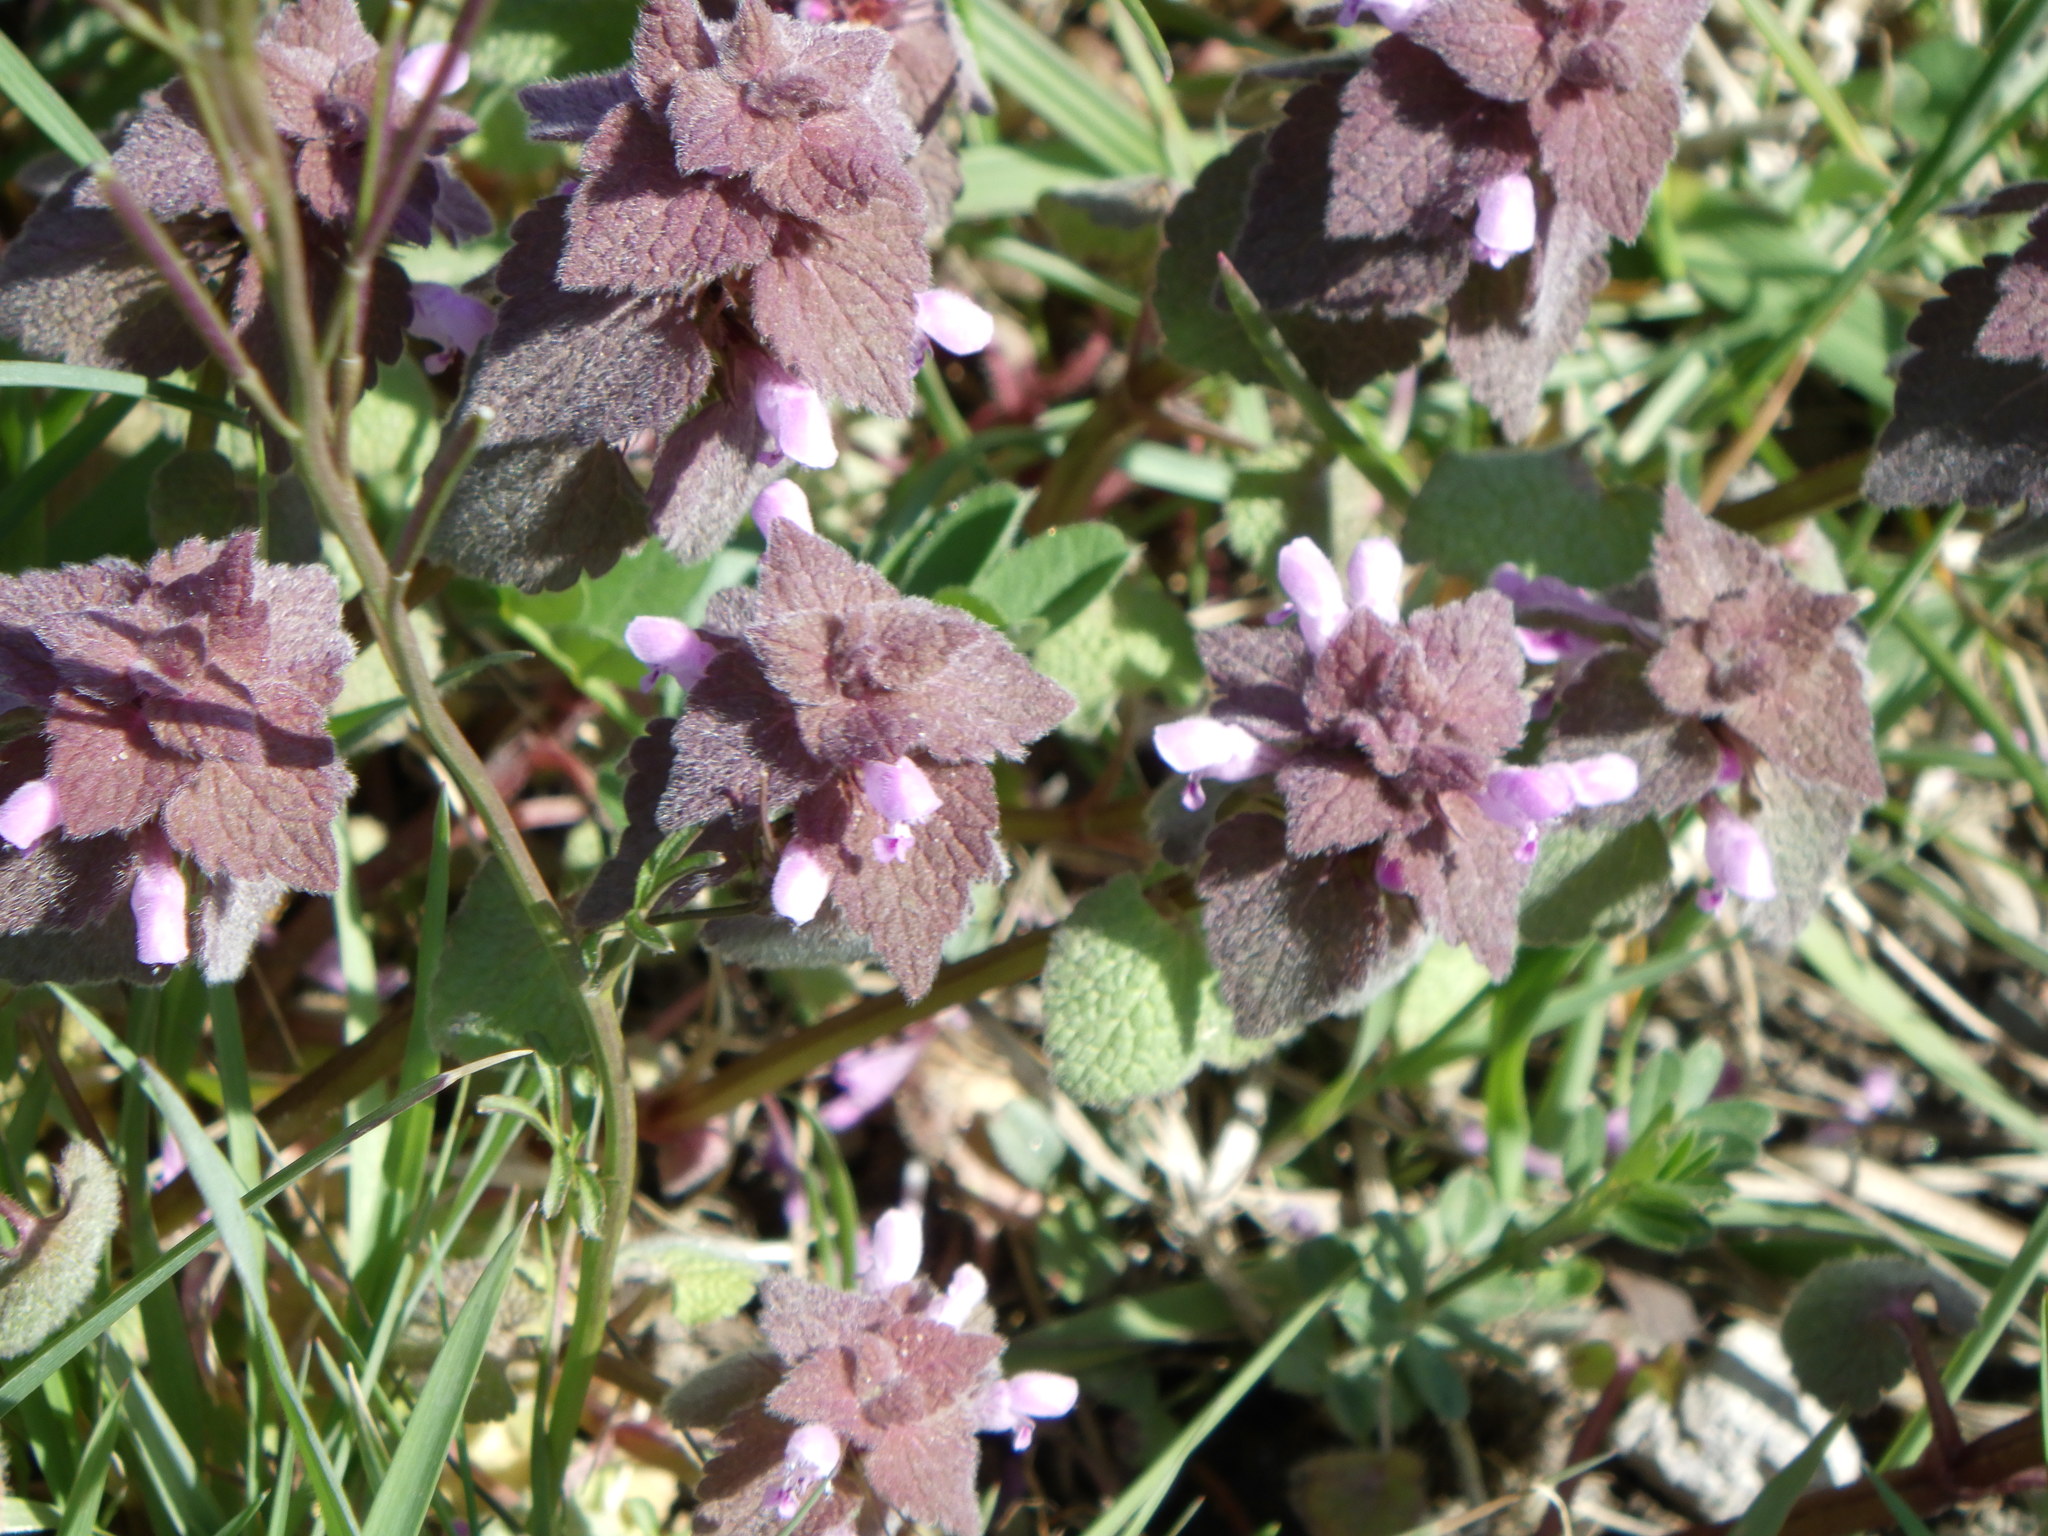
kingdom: Plantae
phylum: Tracheophyta
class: Magnoliopsida
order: Lamiales
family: Lamiaceae
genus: Lamium
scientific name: Lamium purpureum
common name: Red dead-nettle
